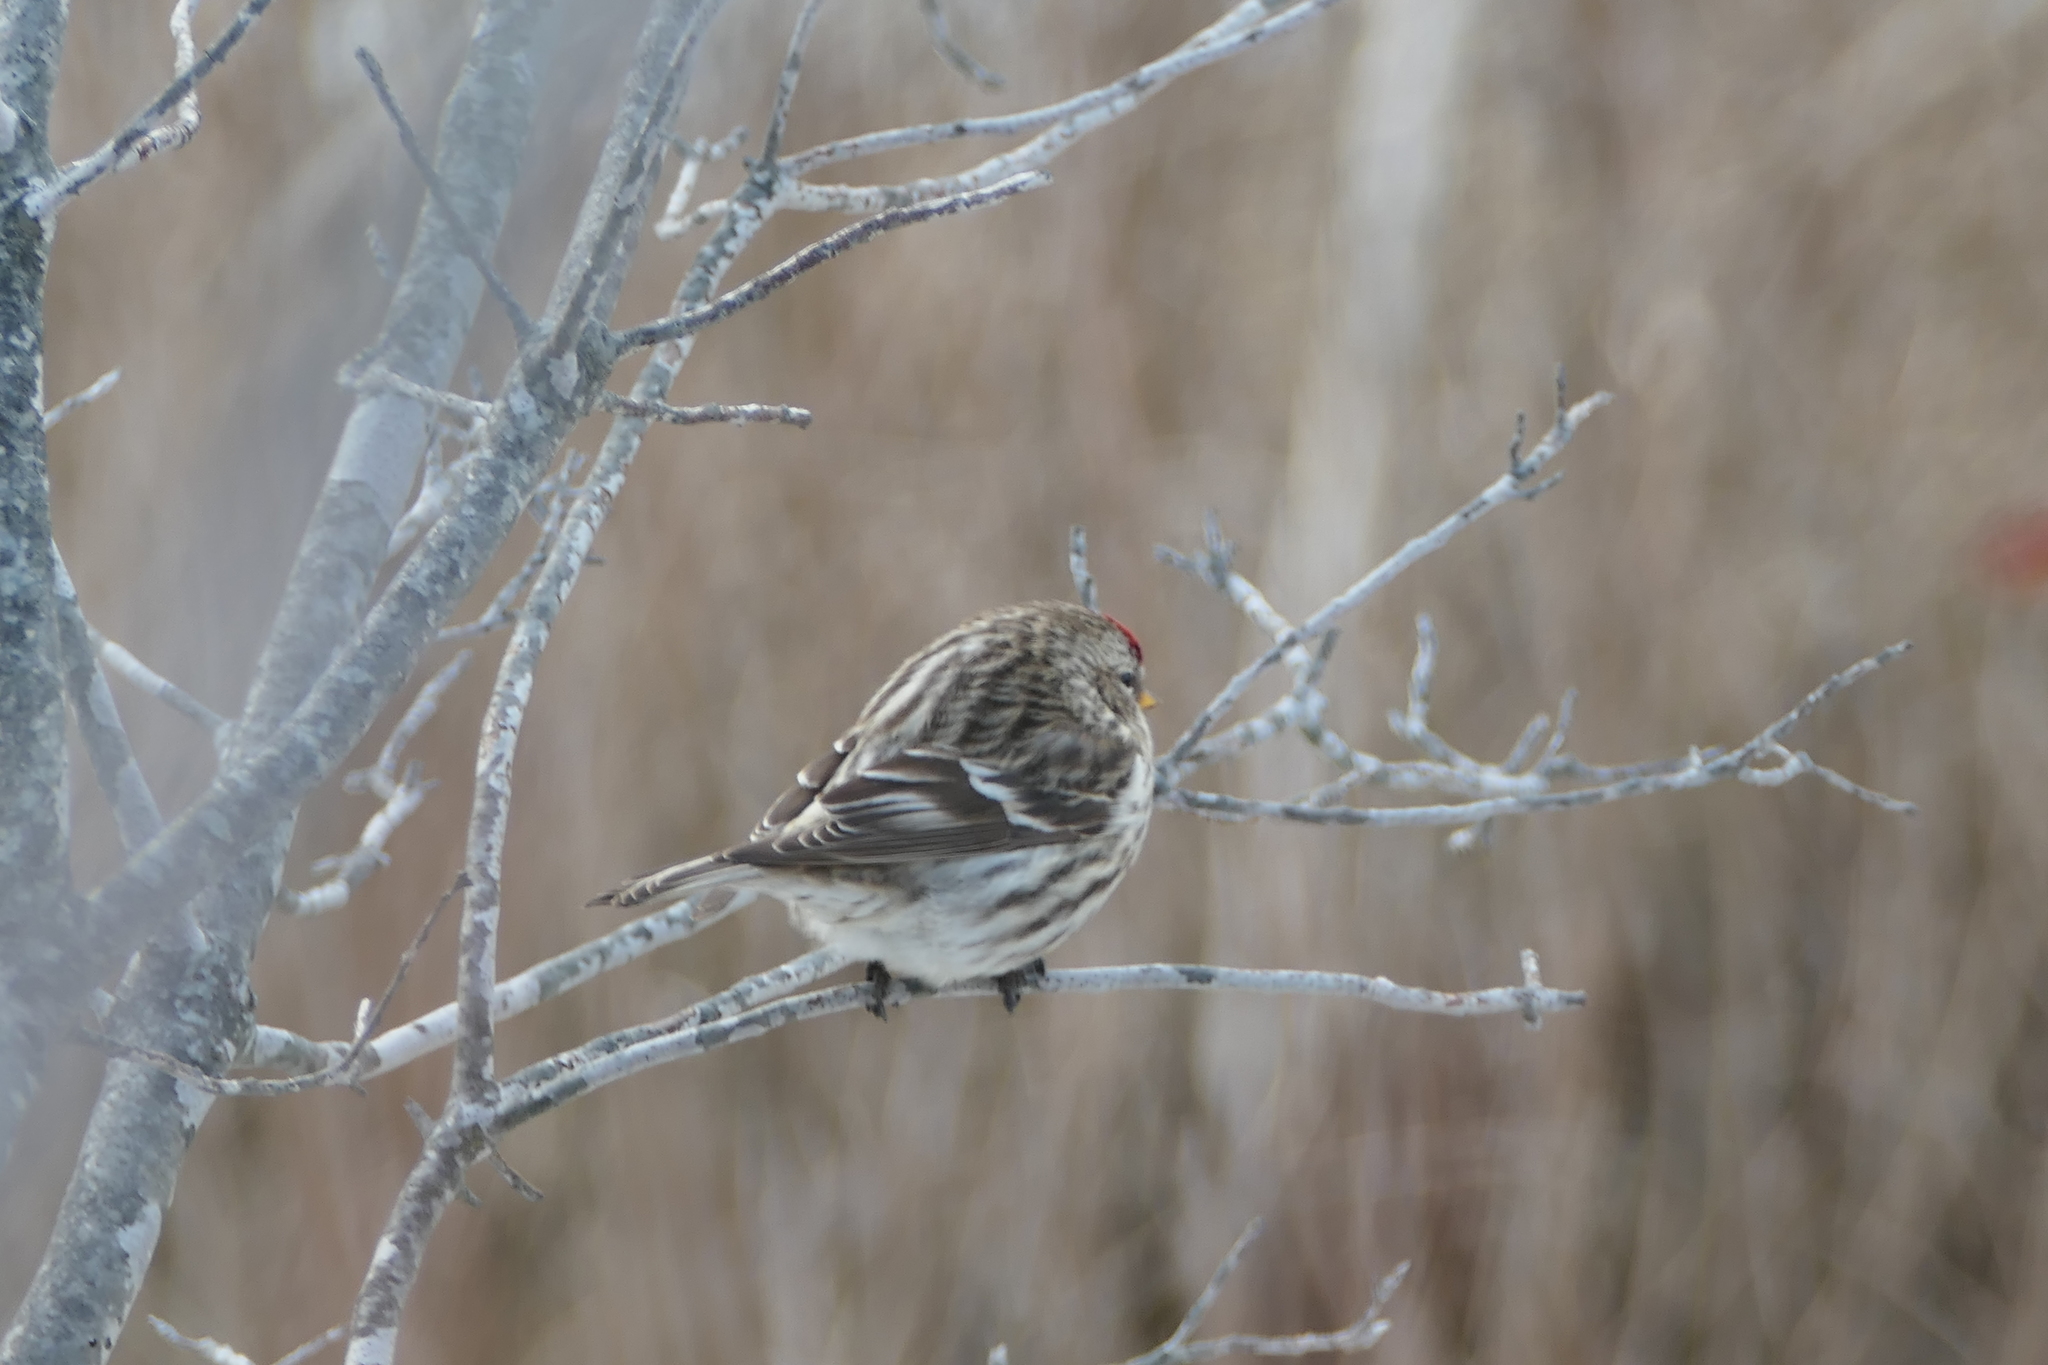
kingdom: Animalia
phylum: Chordata
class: Aves
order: Passeriformes
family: Fringillidae
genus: Acanthis
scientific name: Acanthis flammea
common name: Common redpoll
